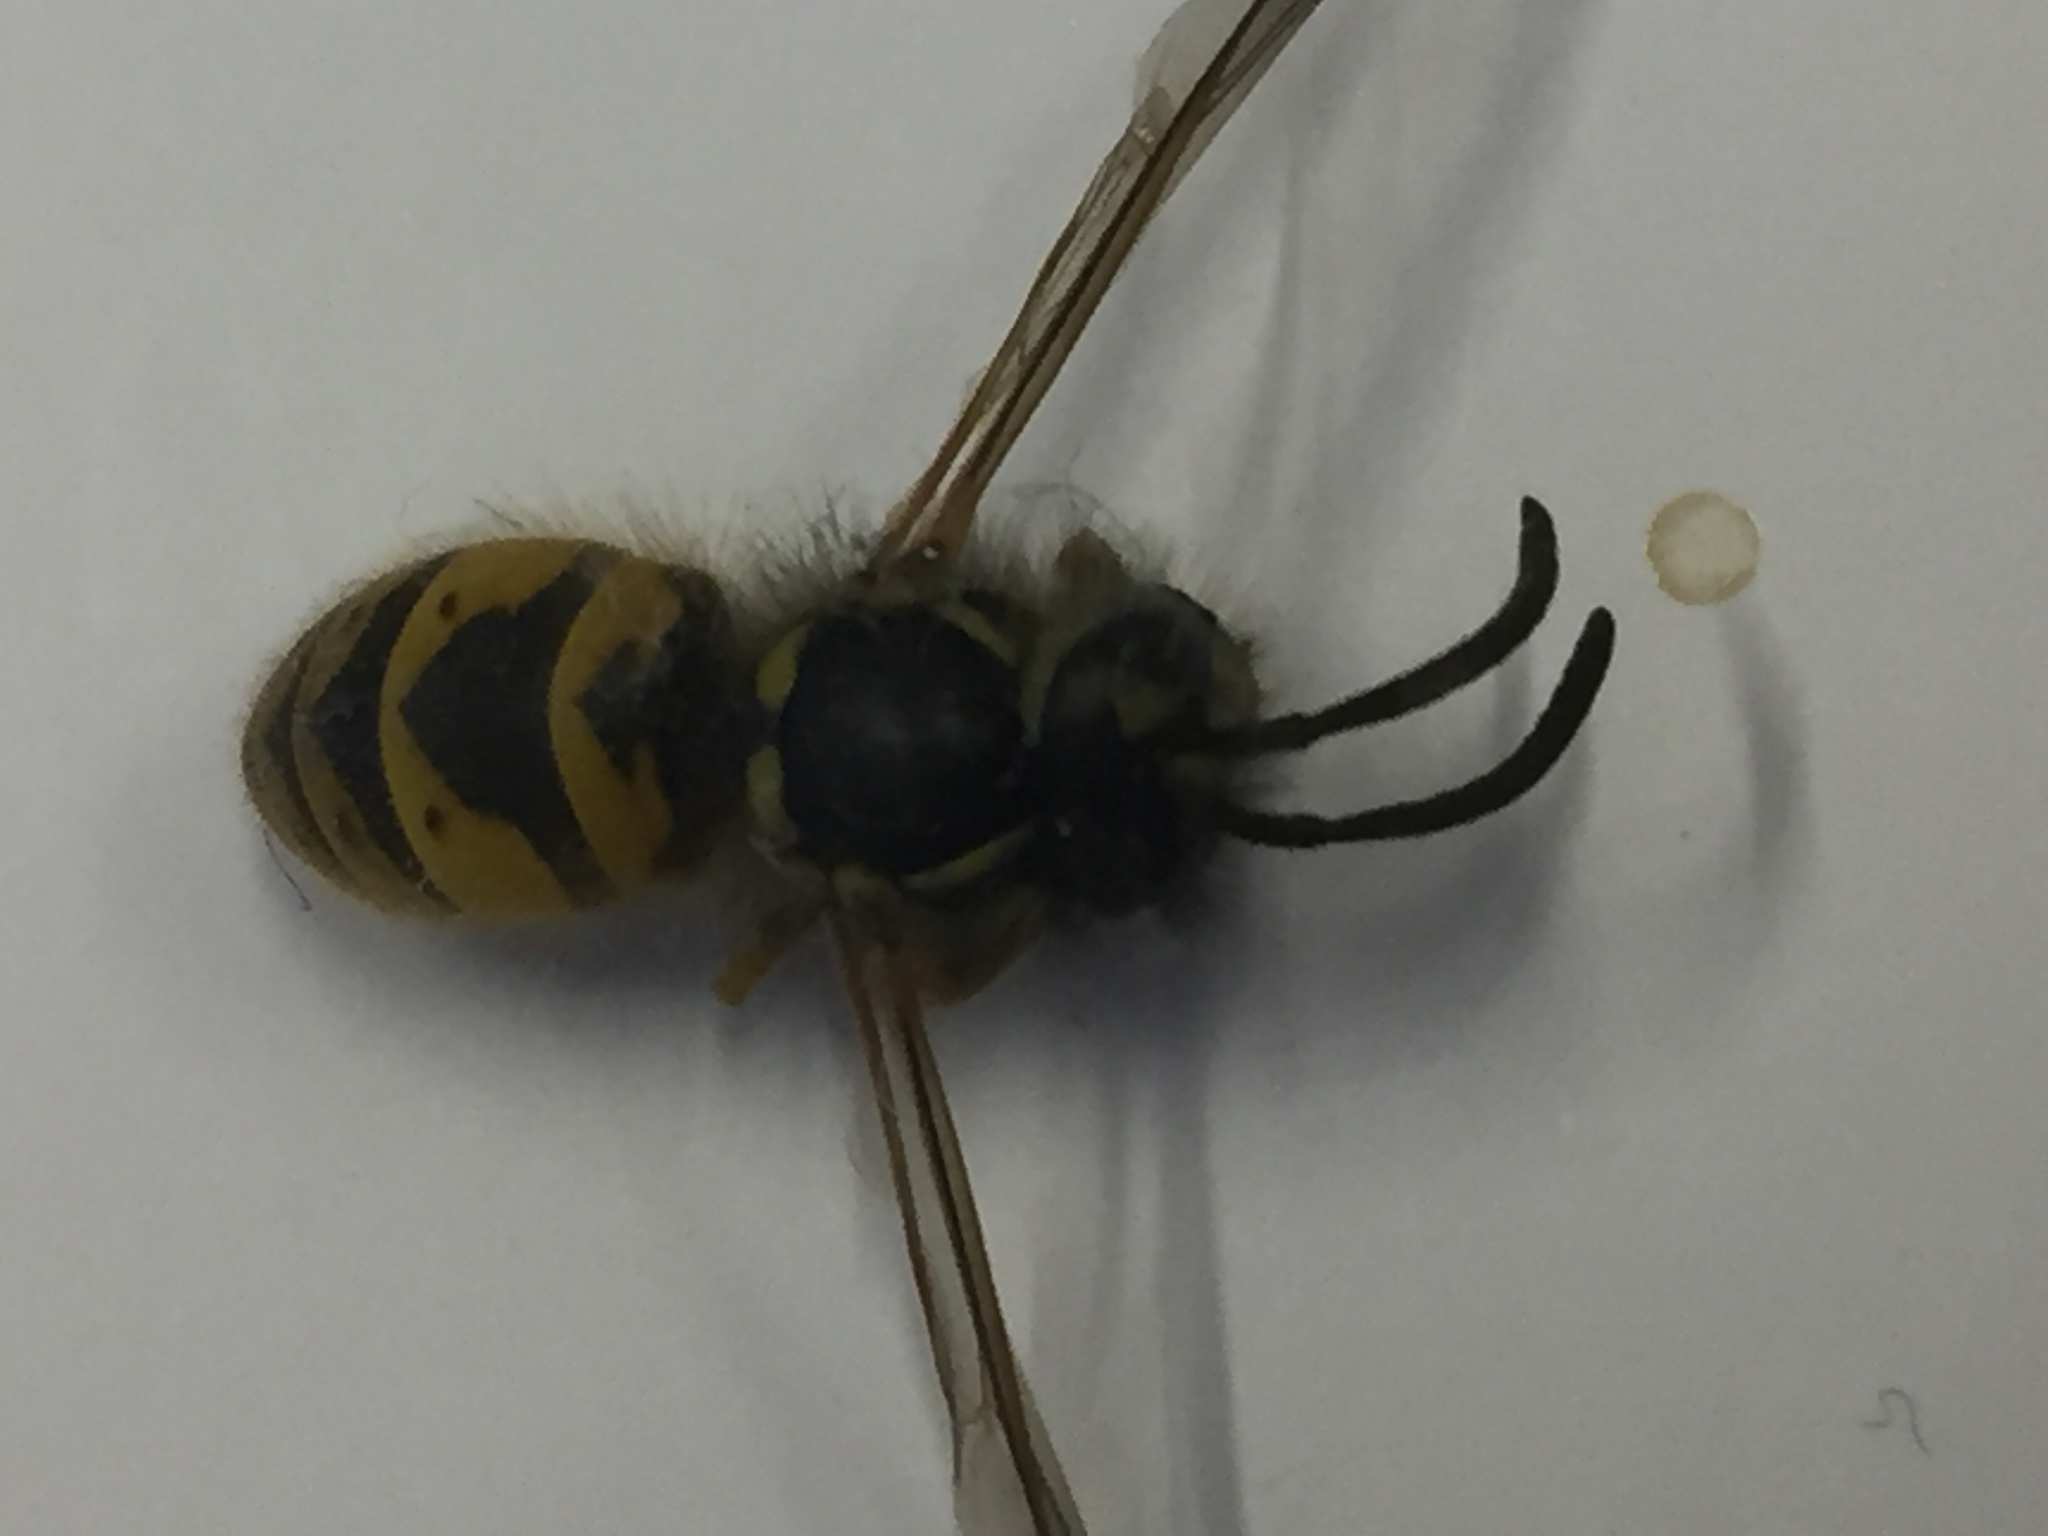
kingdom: Animalia
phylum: Arthropoda
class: Insecta
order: Hymenoptera
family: Vespidae
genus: Vespula
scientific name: Vespula germanica
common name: German wasp
